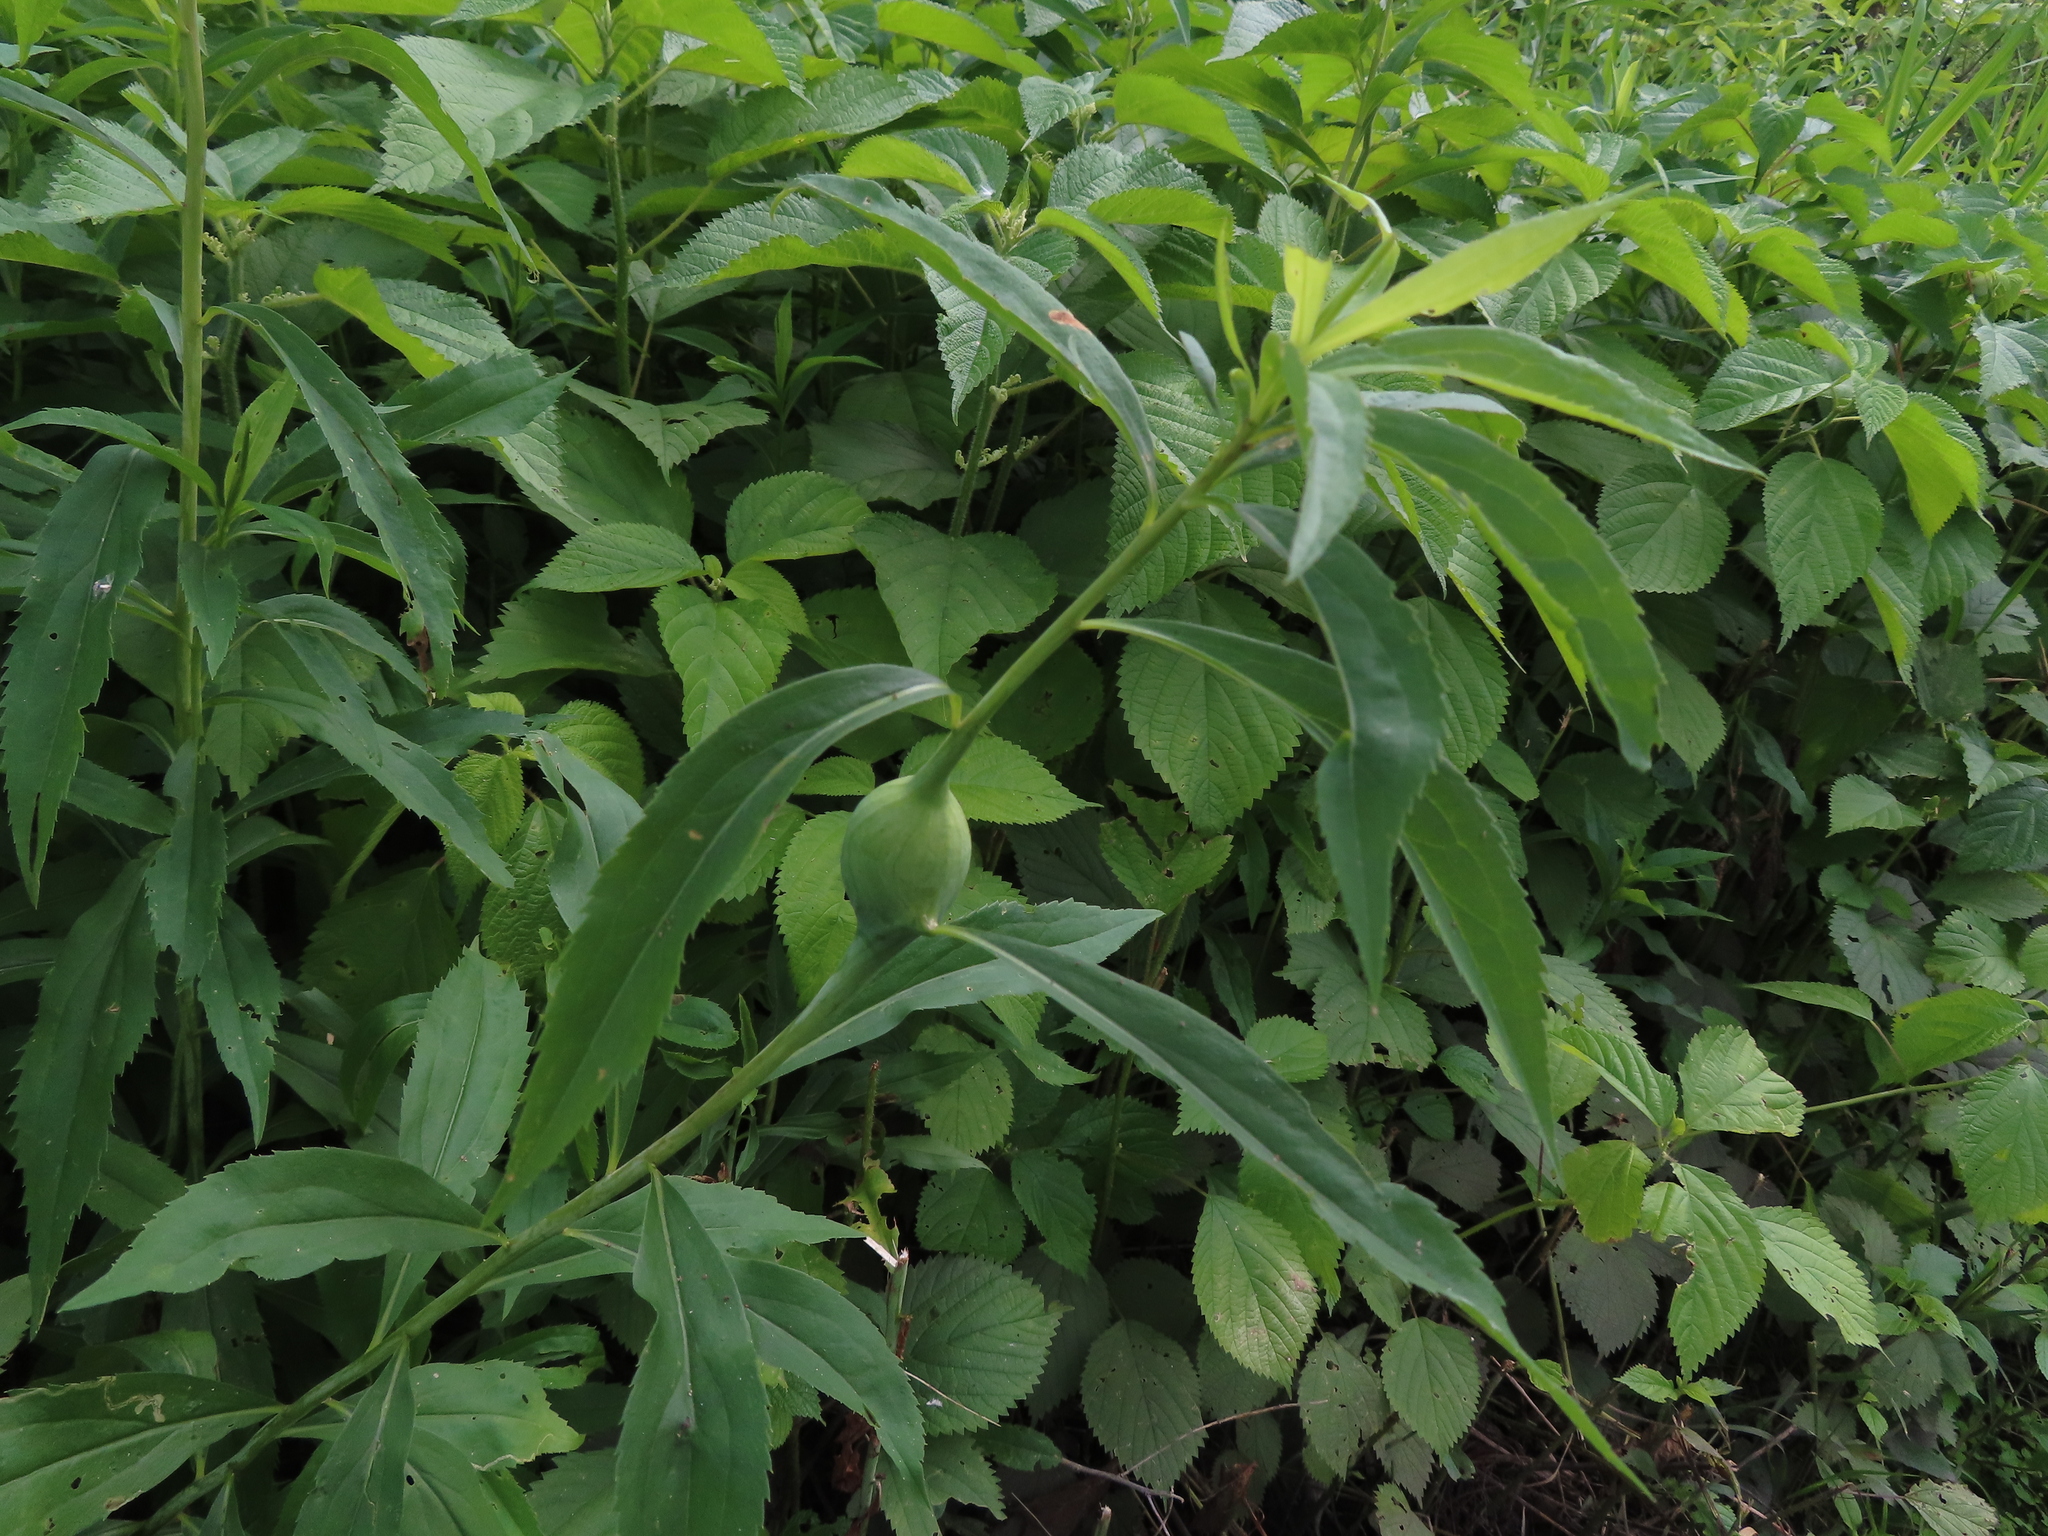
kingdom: Animalia
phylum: Arthropoda
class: Insecta
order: Diptera
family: Tephritidae
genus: Eurosta
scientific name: Eurosta solidaginis
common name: Goldenrod gall fly
